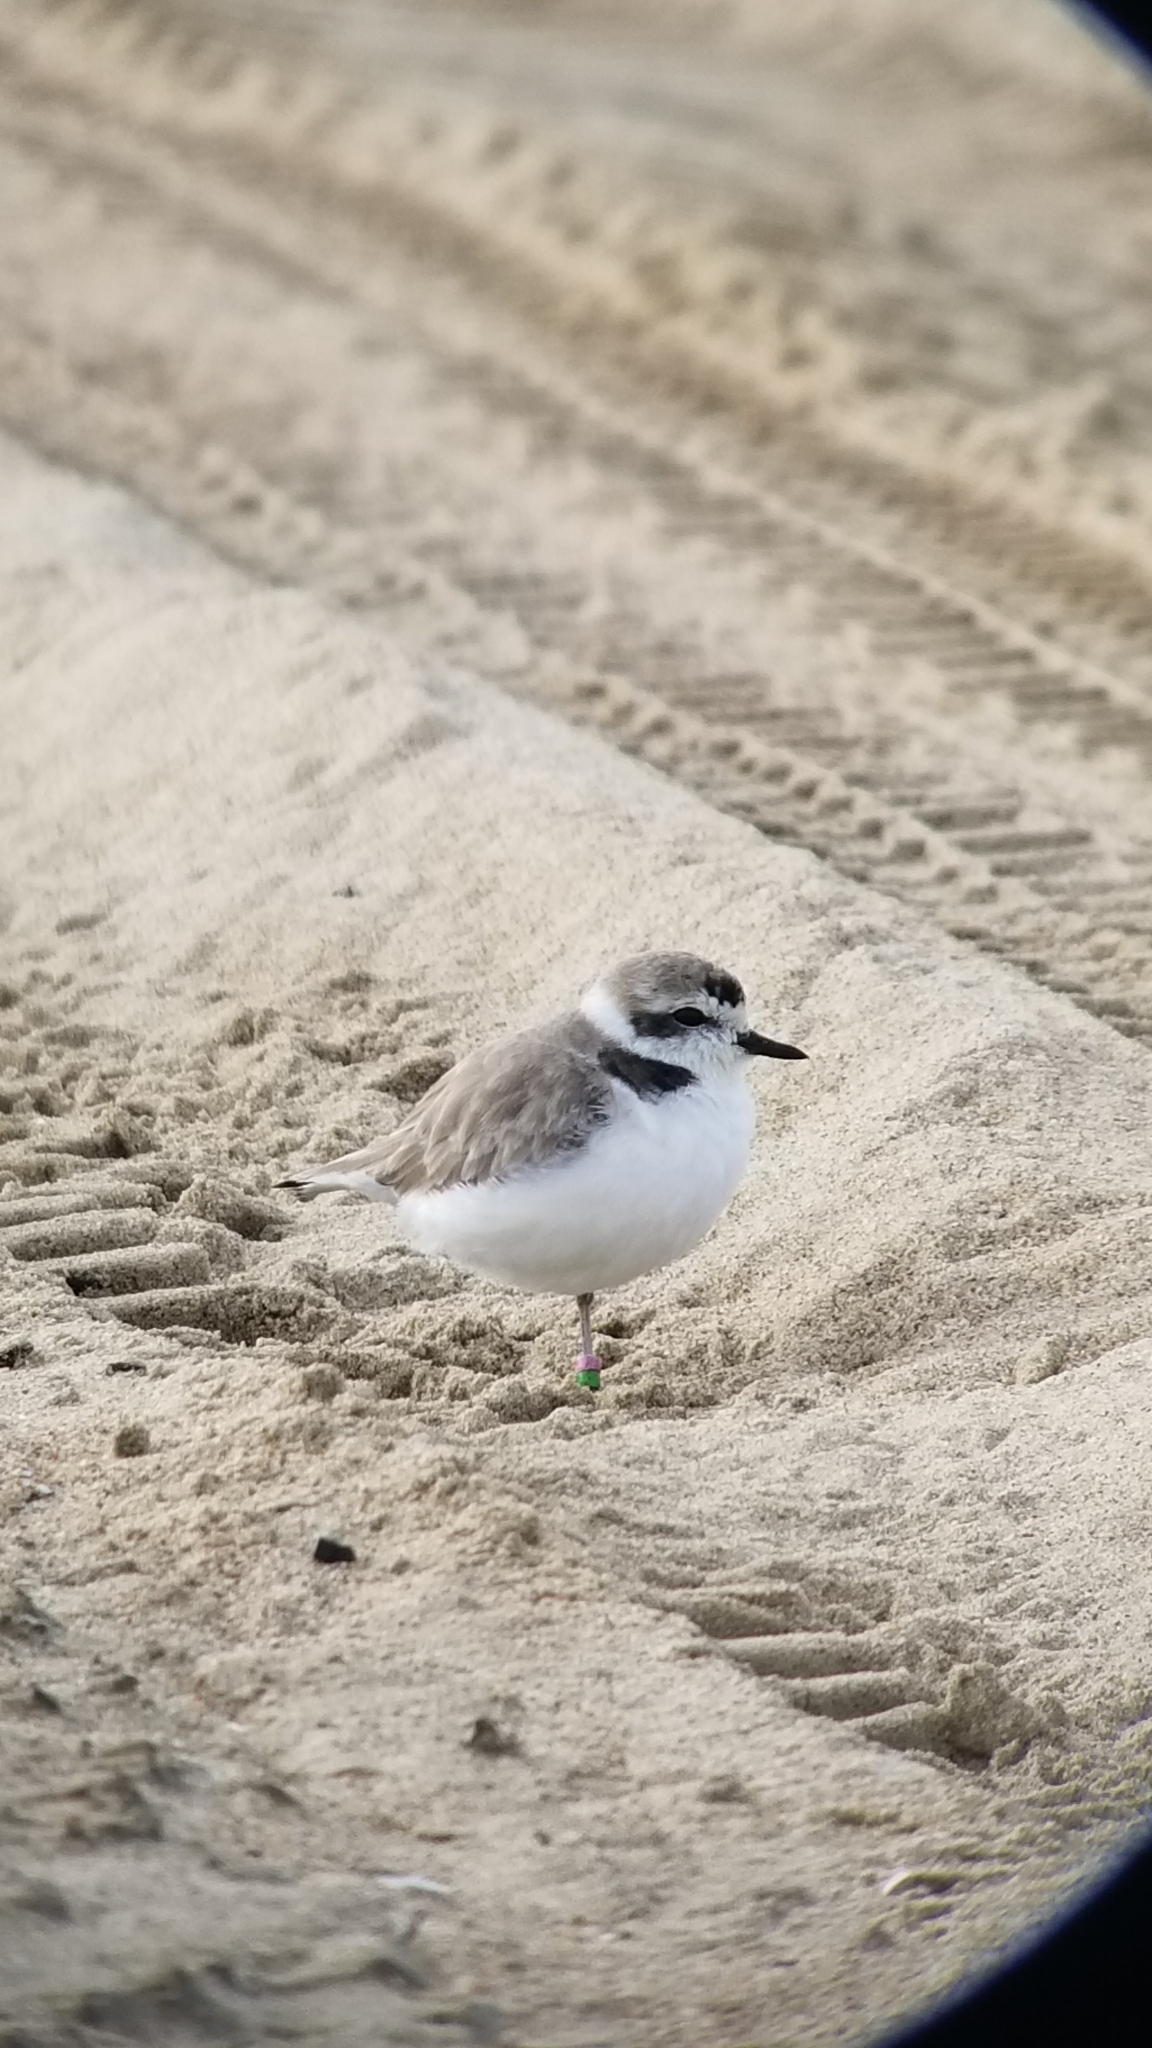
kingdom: Animalia
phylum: Chordata
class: Aves
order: Charadriiformes
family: Charadriidae
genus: Anarhynchus
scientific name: Anarhynchus
